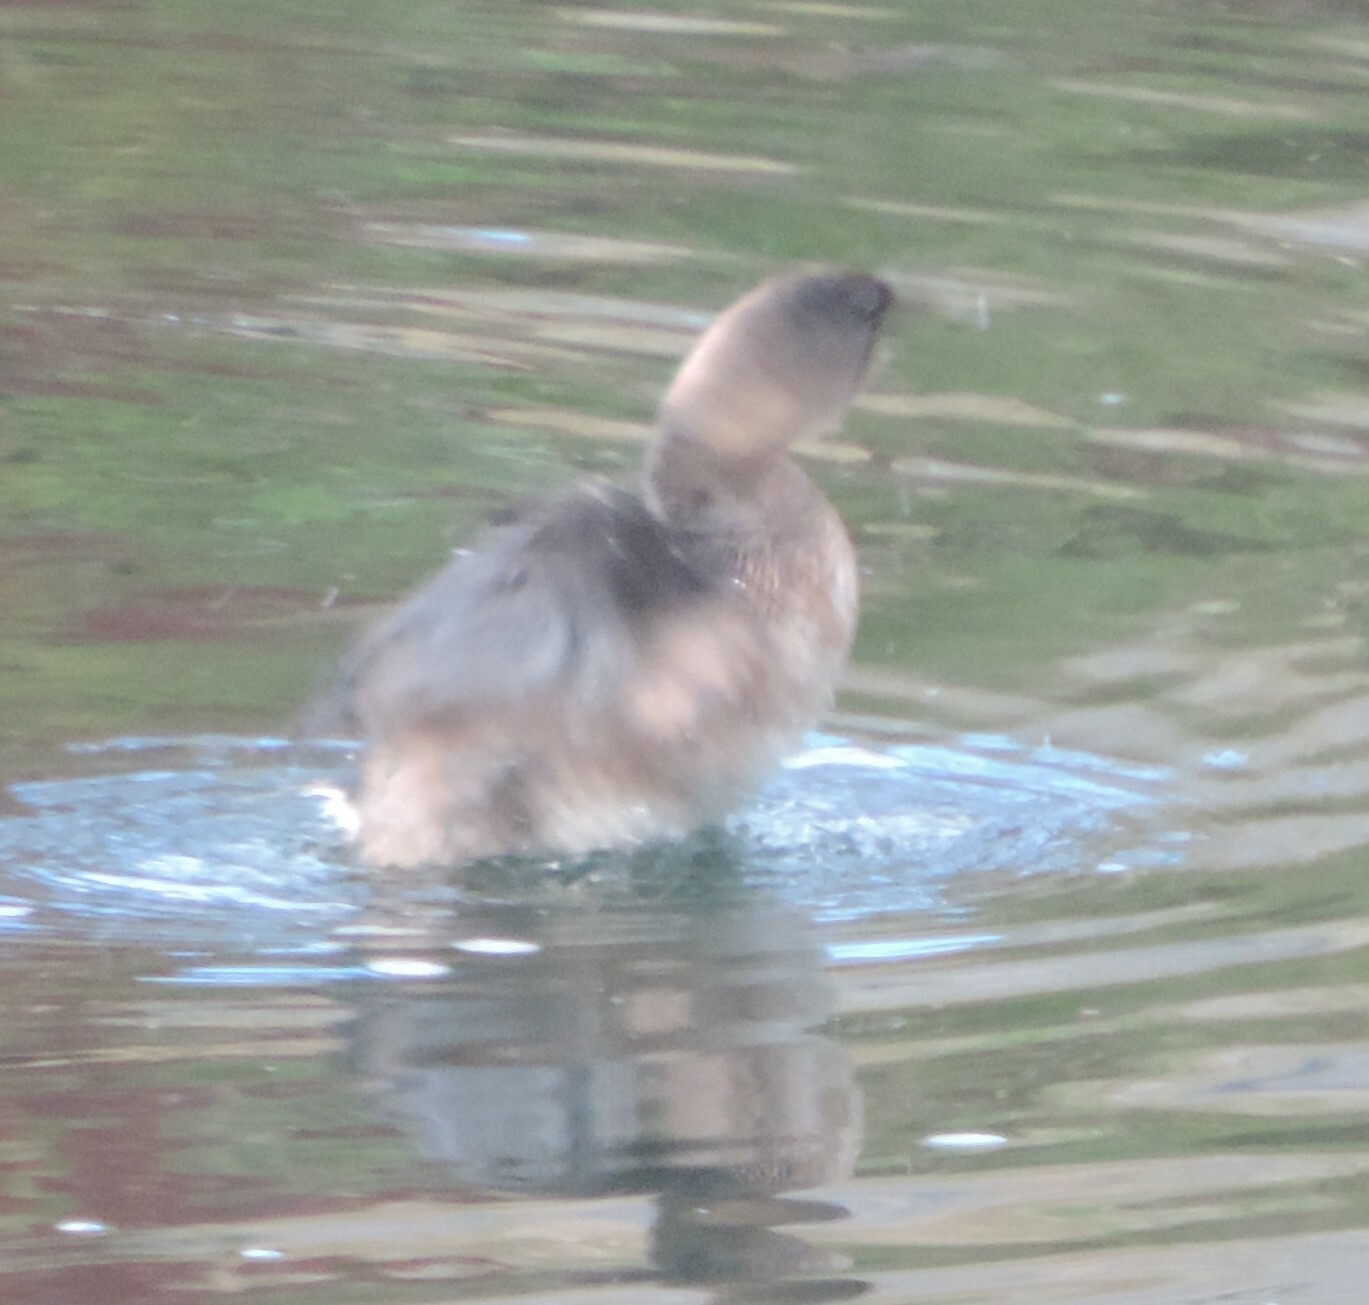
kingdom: Animalia
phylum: Chordata
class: Aves
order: Podicipediformes
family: Podicipedidae
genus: Podilymbus
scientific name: Podilymbus podiceps
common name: Pied-billed grebe
